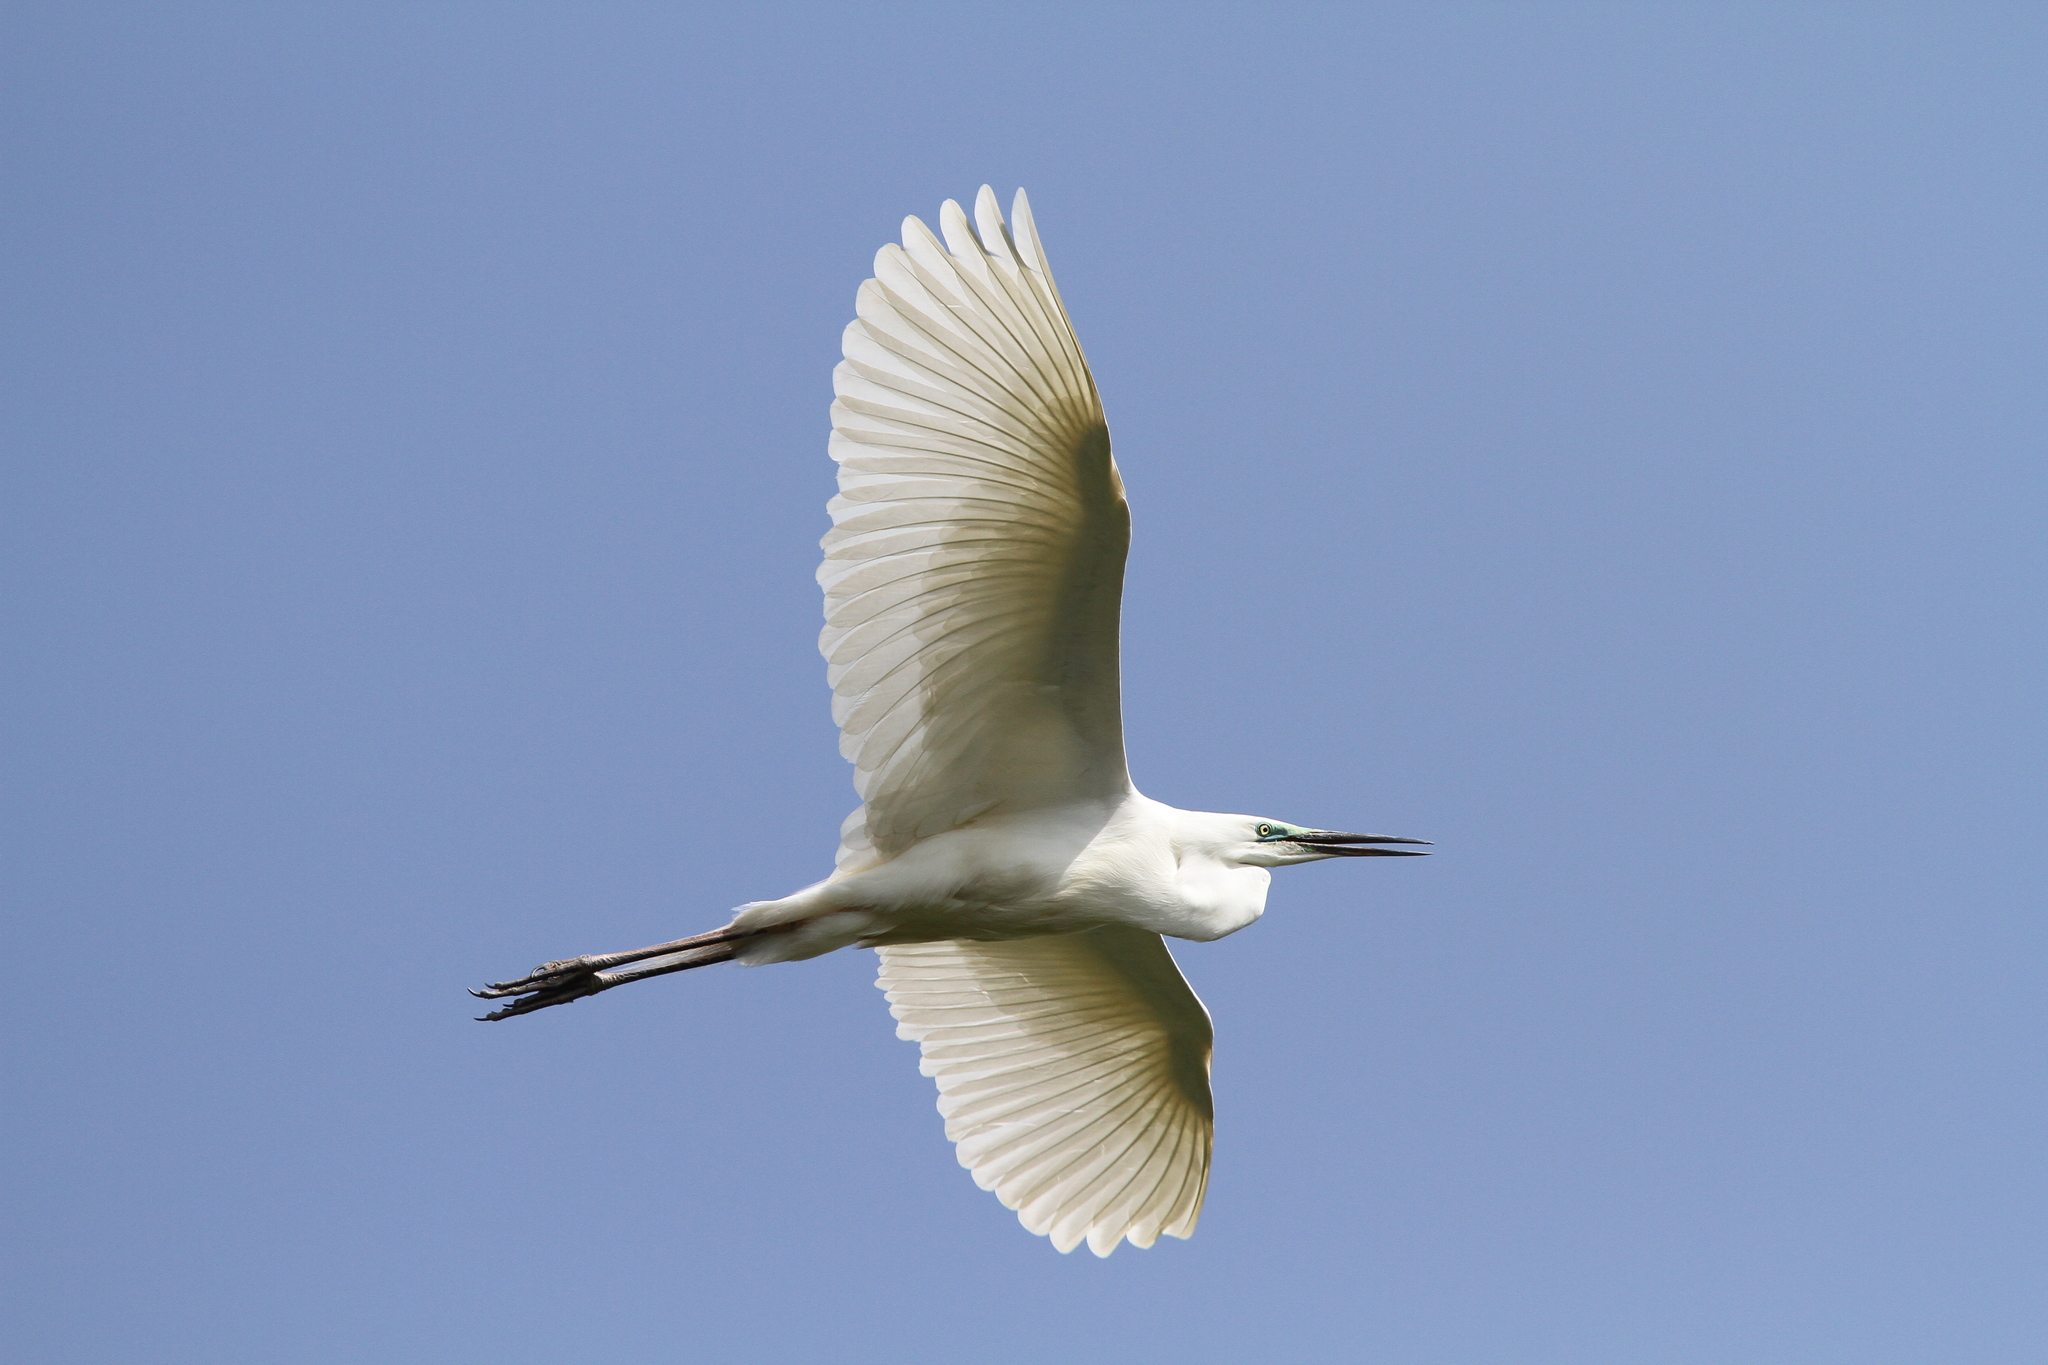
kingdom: Animalia
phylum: Chordata
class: Aves
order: Pelecaniformes
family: Ardeidae
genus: Ardea
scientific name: Ardea alba
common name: Great egret
